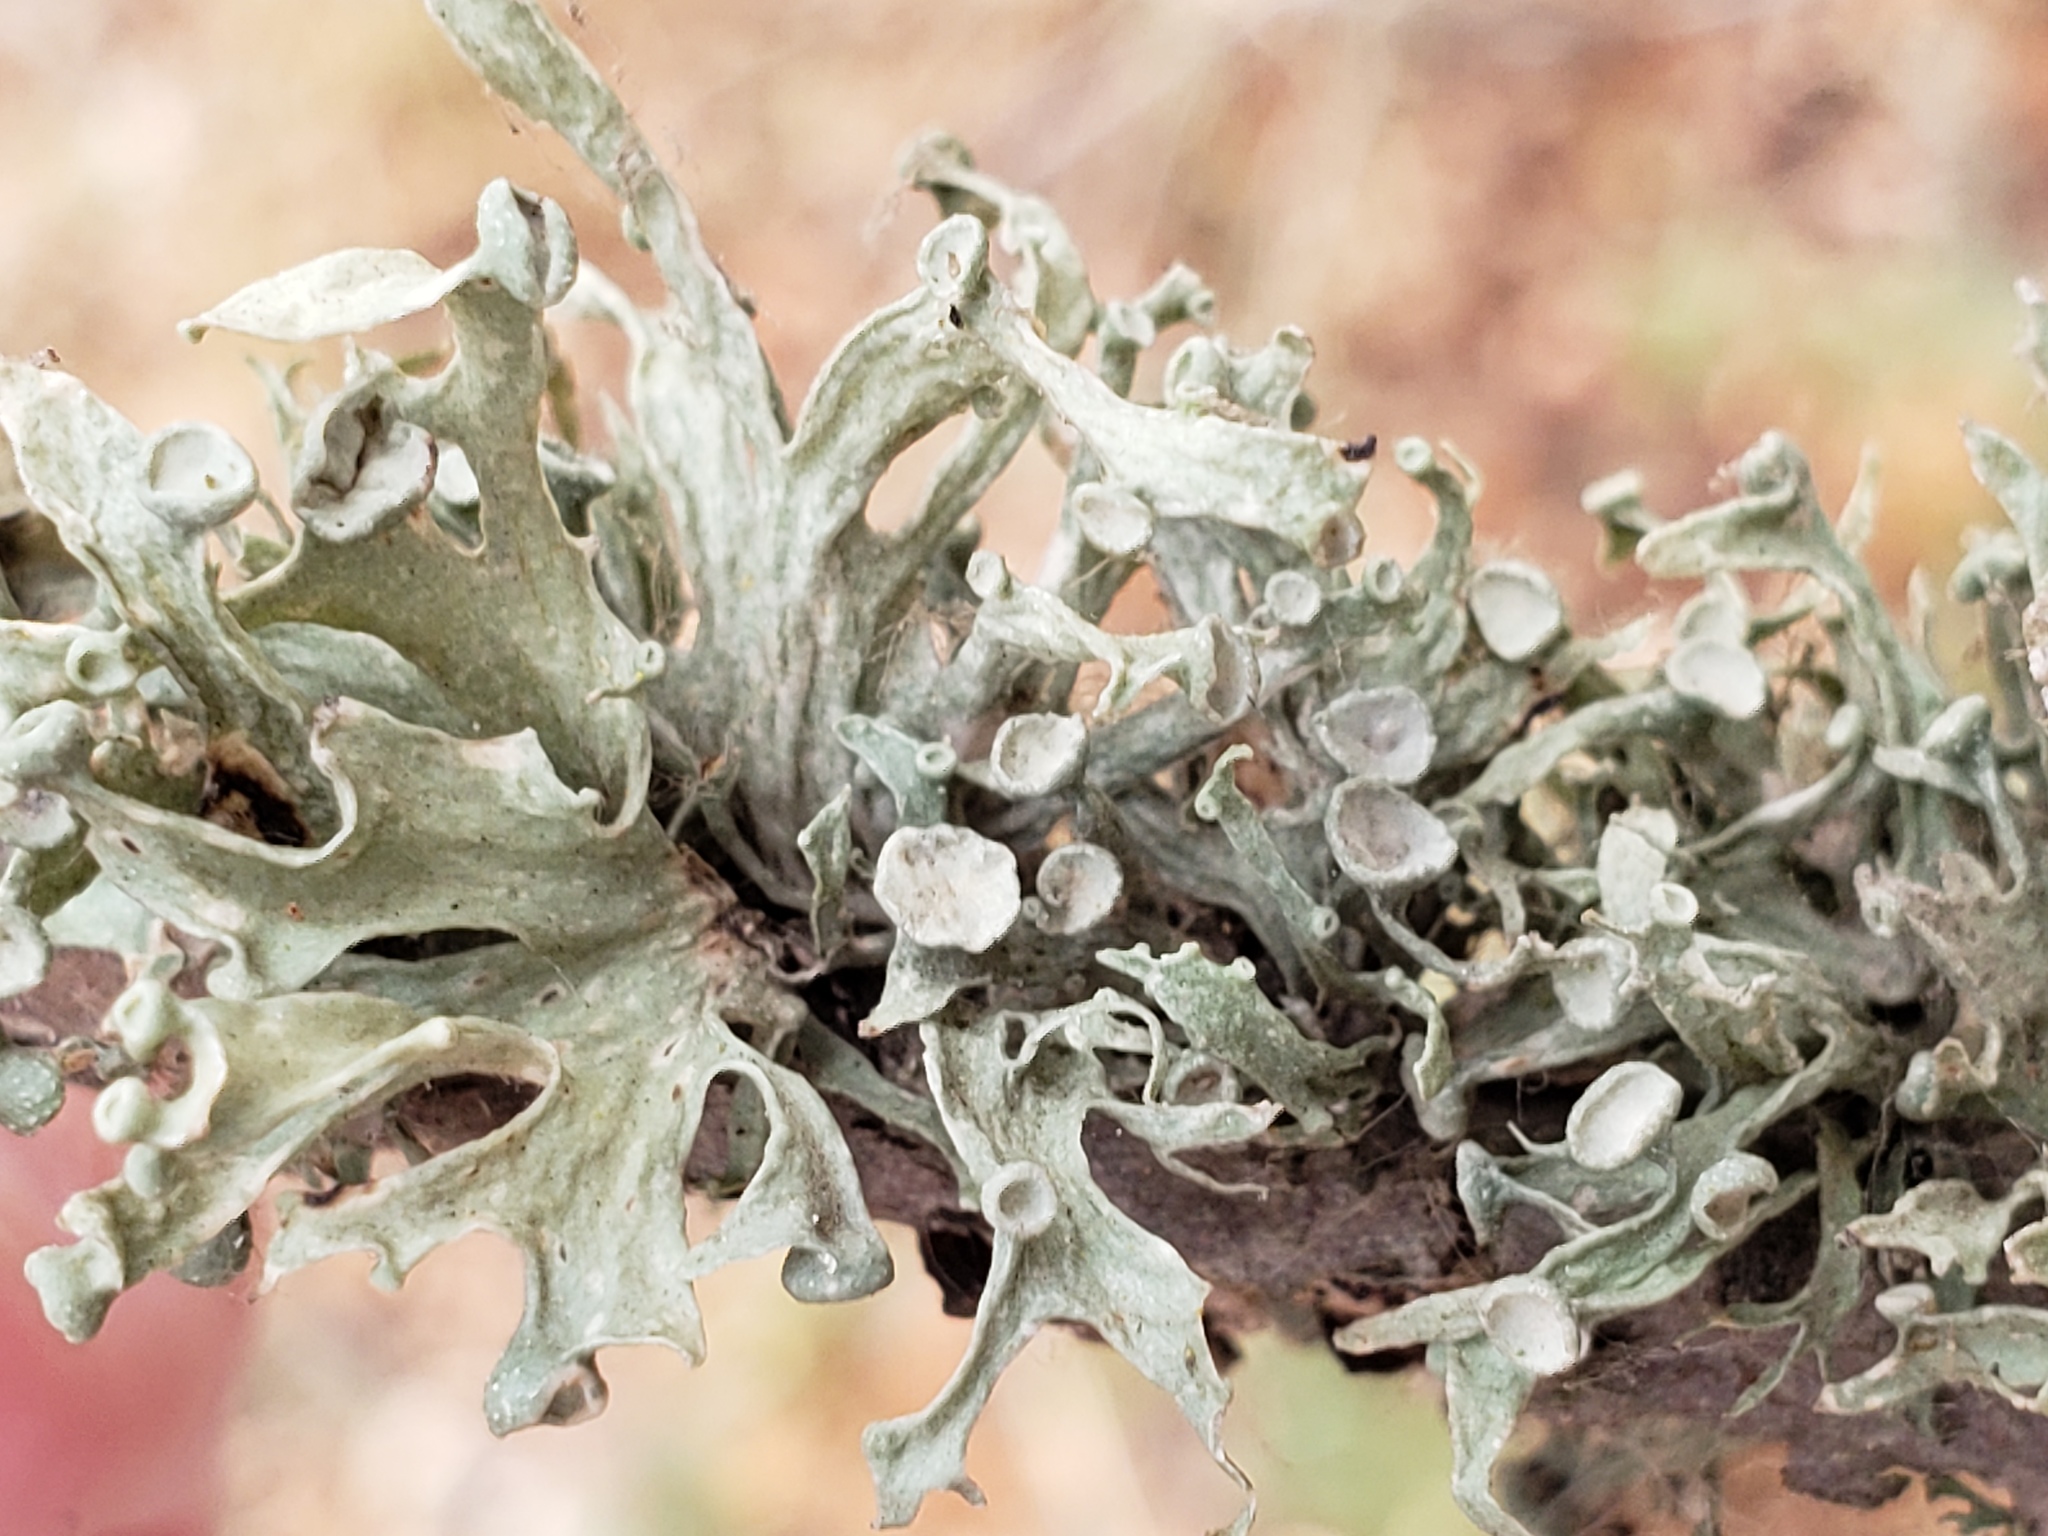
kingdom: Fungi
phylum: Ascomycota
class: Lecanoromycetes
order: Lecanorales
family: Ramalinaceae
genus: Ramalina
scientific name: Ramalina leptocarpha
